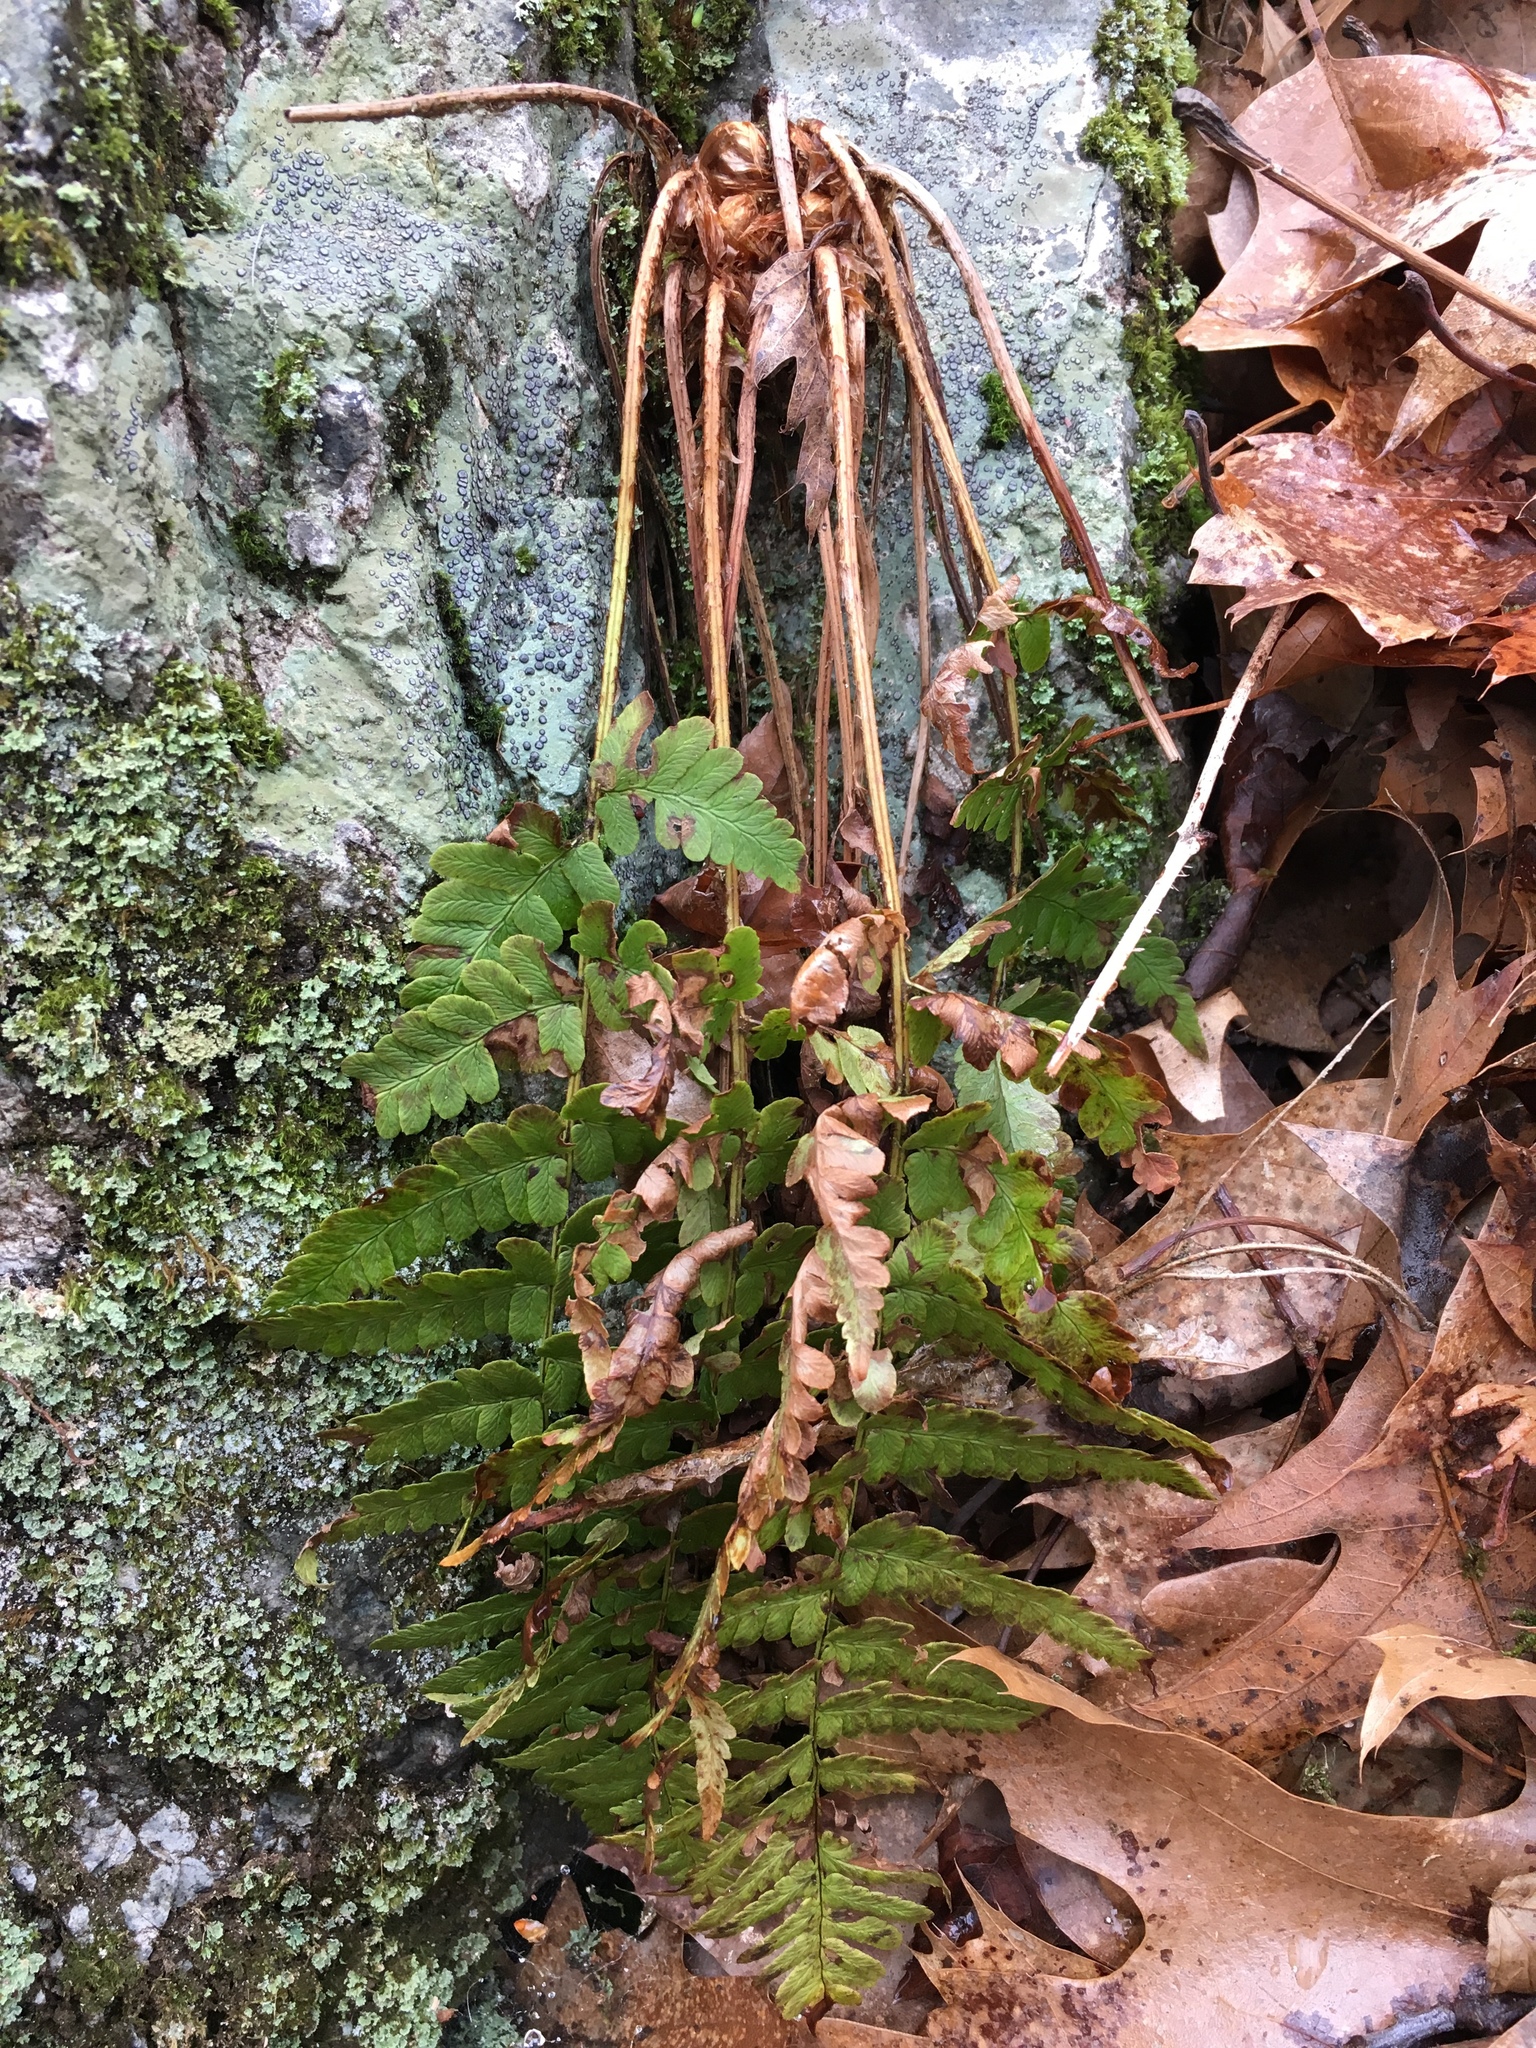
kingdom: Plantae
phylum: Tracheophyta
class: Polypodiopsida
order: Polypodiales
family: Dryopteridaceae
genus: Dryopteris
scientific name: Dryopteris marginalis
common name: Marginal wood fern
